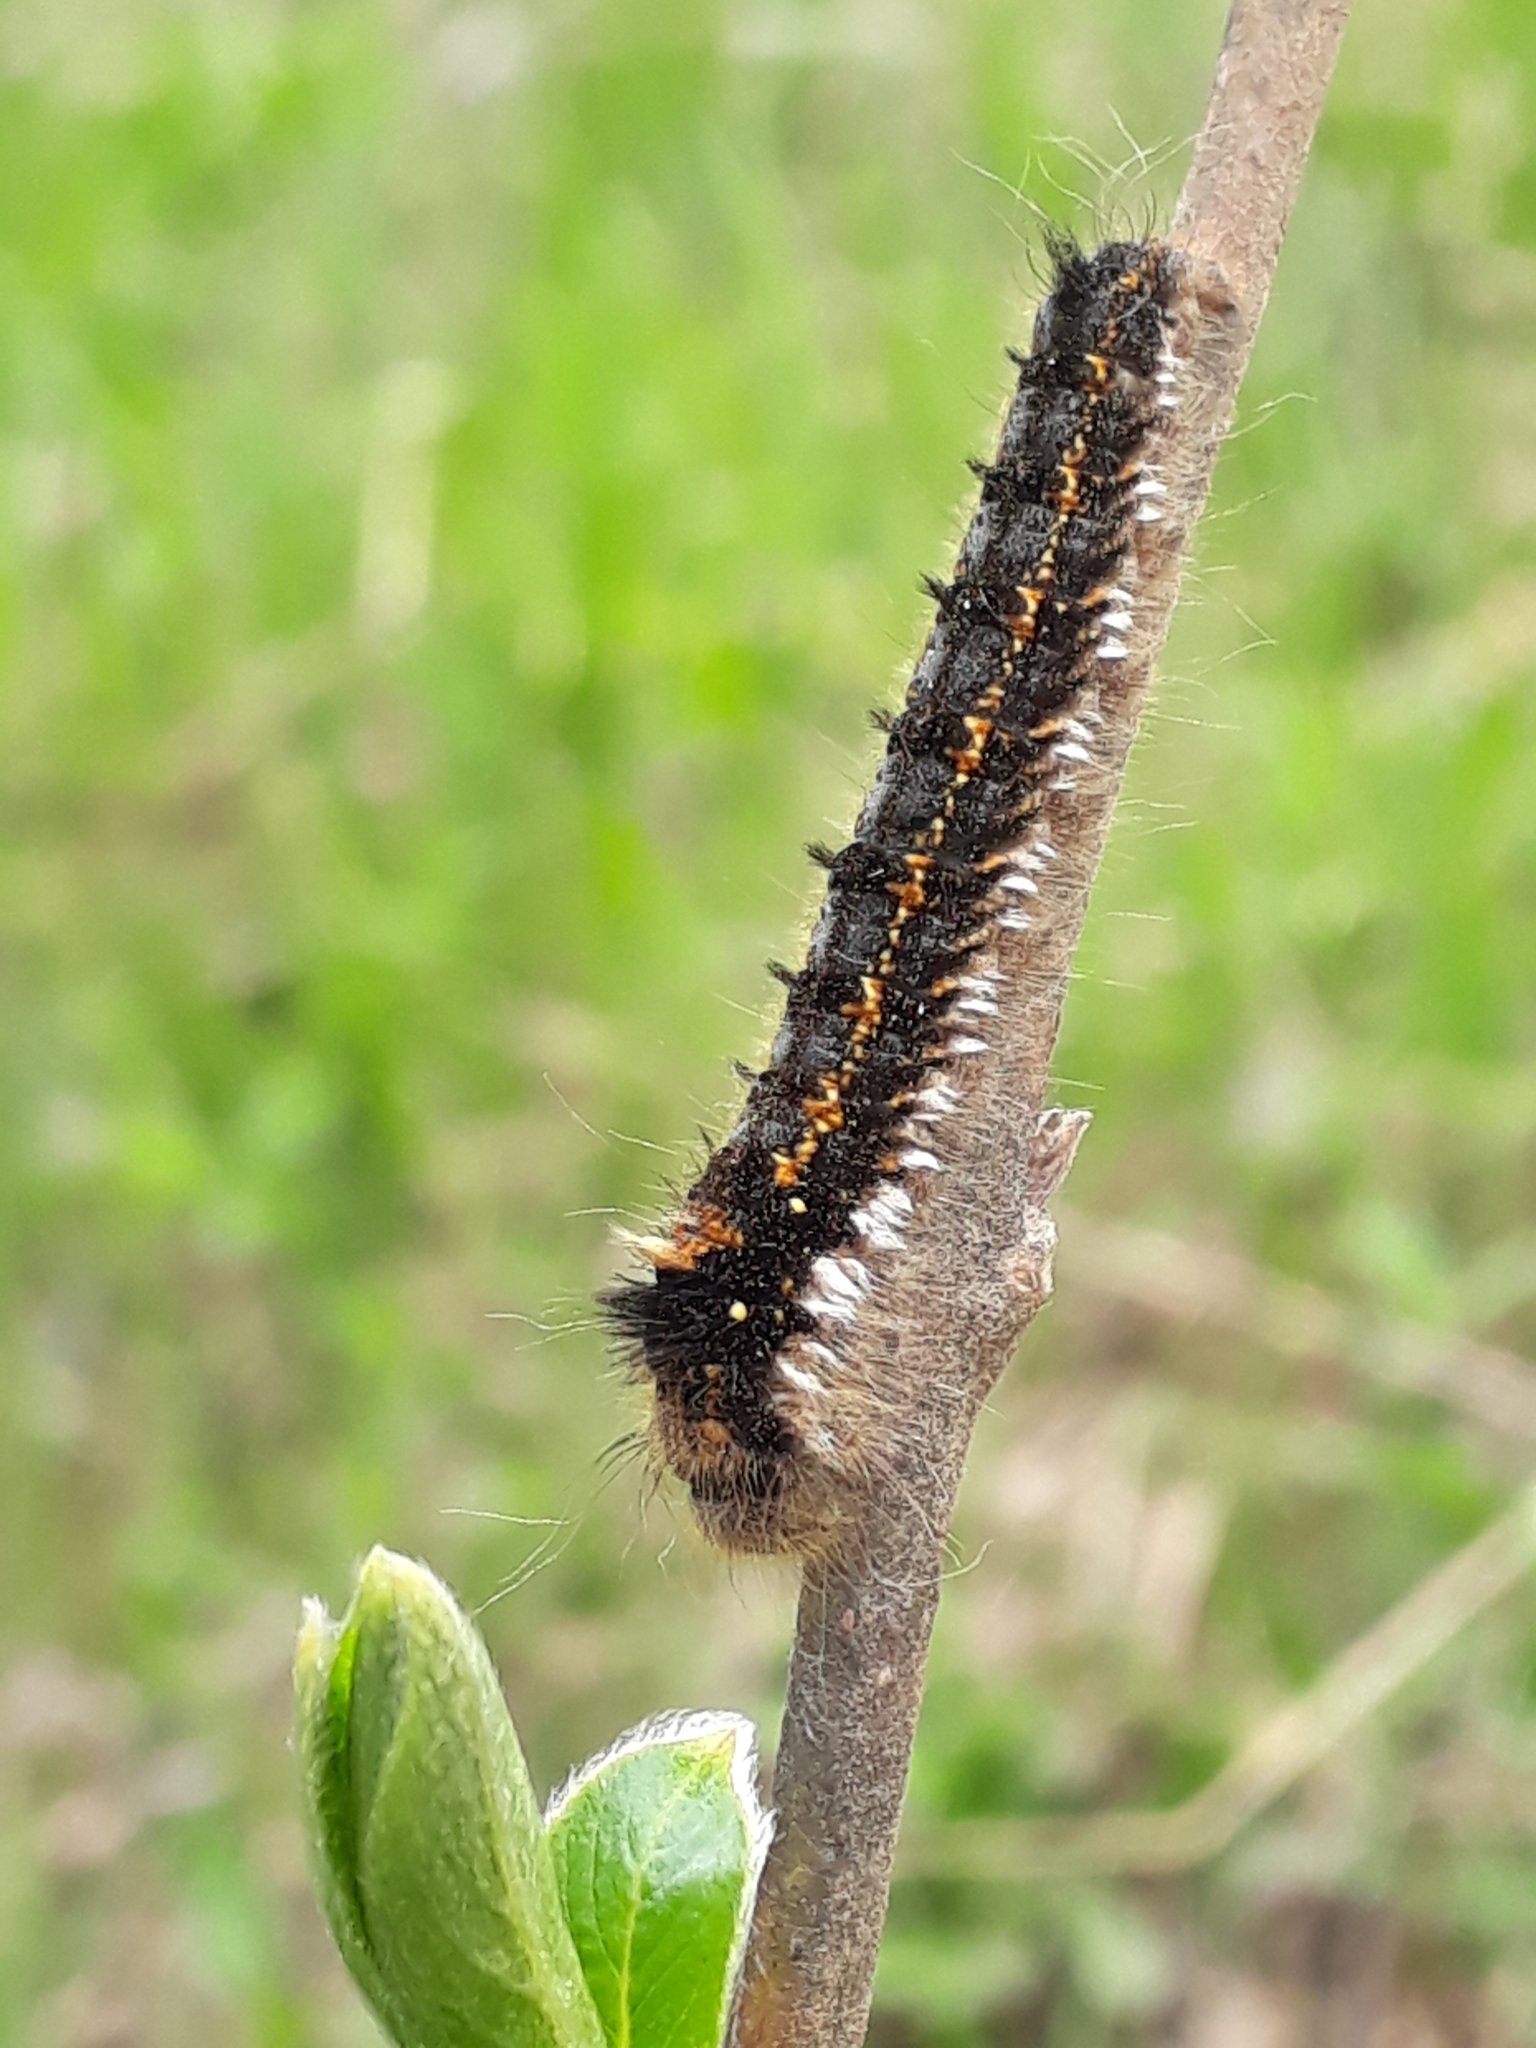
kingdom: Animalia
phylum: Arthropoda
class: Insecta
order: Lepidoptera
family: Lasiocampidae
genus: Euthrix
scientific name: Euthrix potatoria
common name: Drinker
